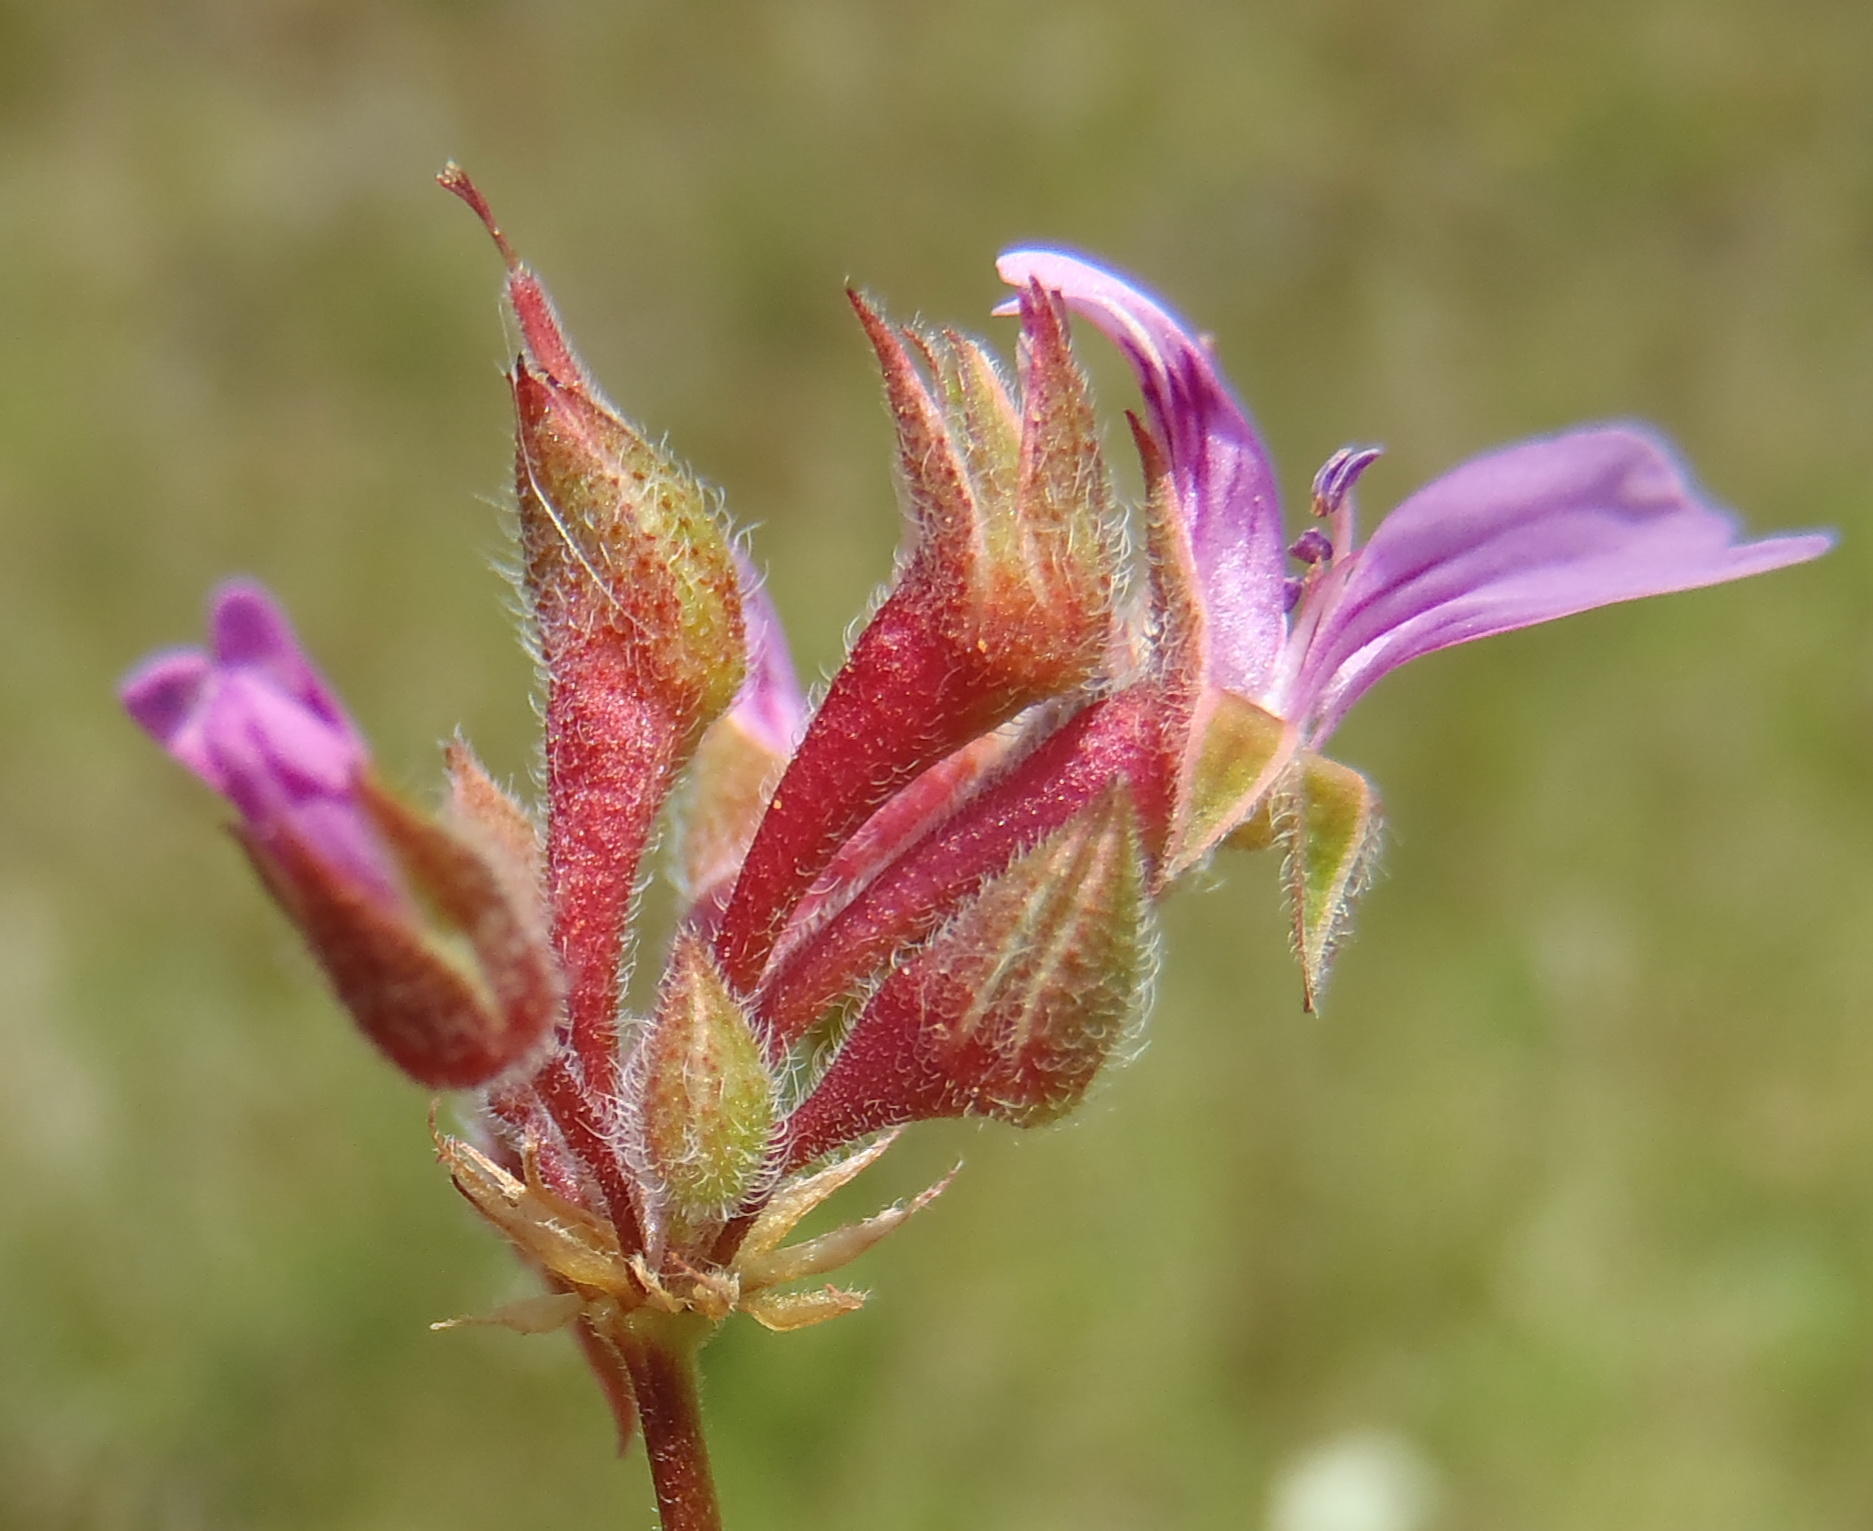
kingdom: Plantae
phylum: Tracheophyta
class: Magnoliopsida
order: Geraniales
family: Geraniaceae
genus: Pelargonium
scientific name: Pelargonium grossularioides
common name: Gooseberry geranium
